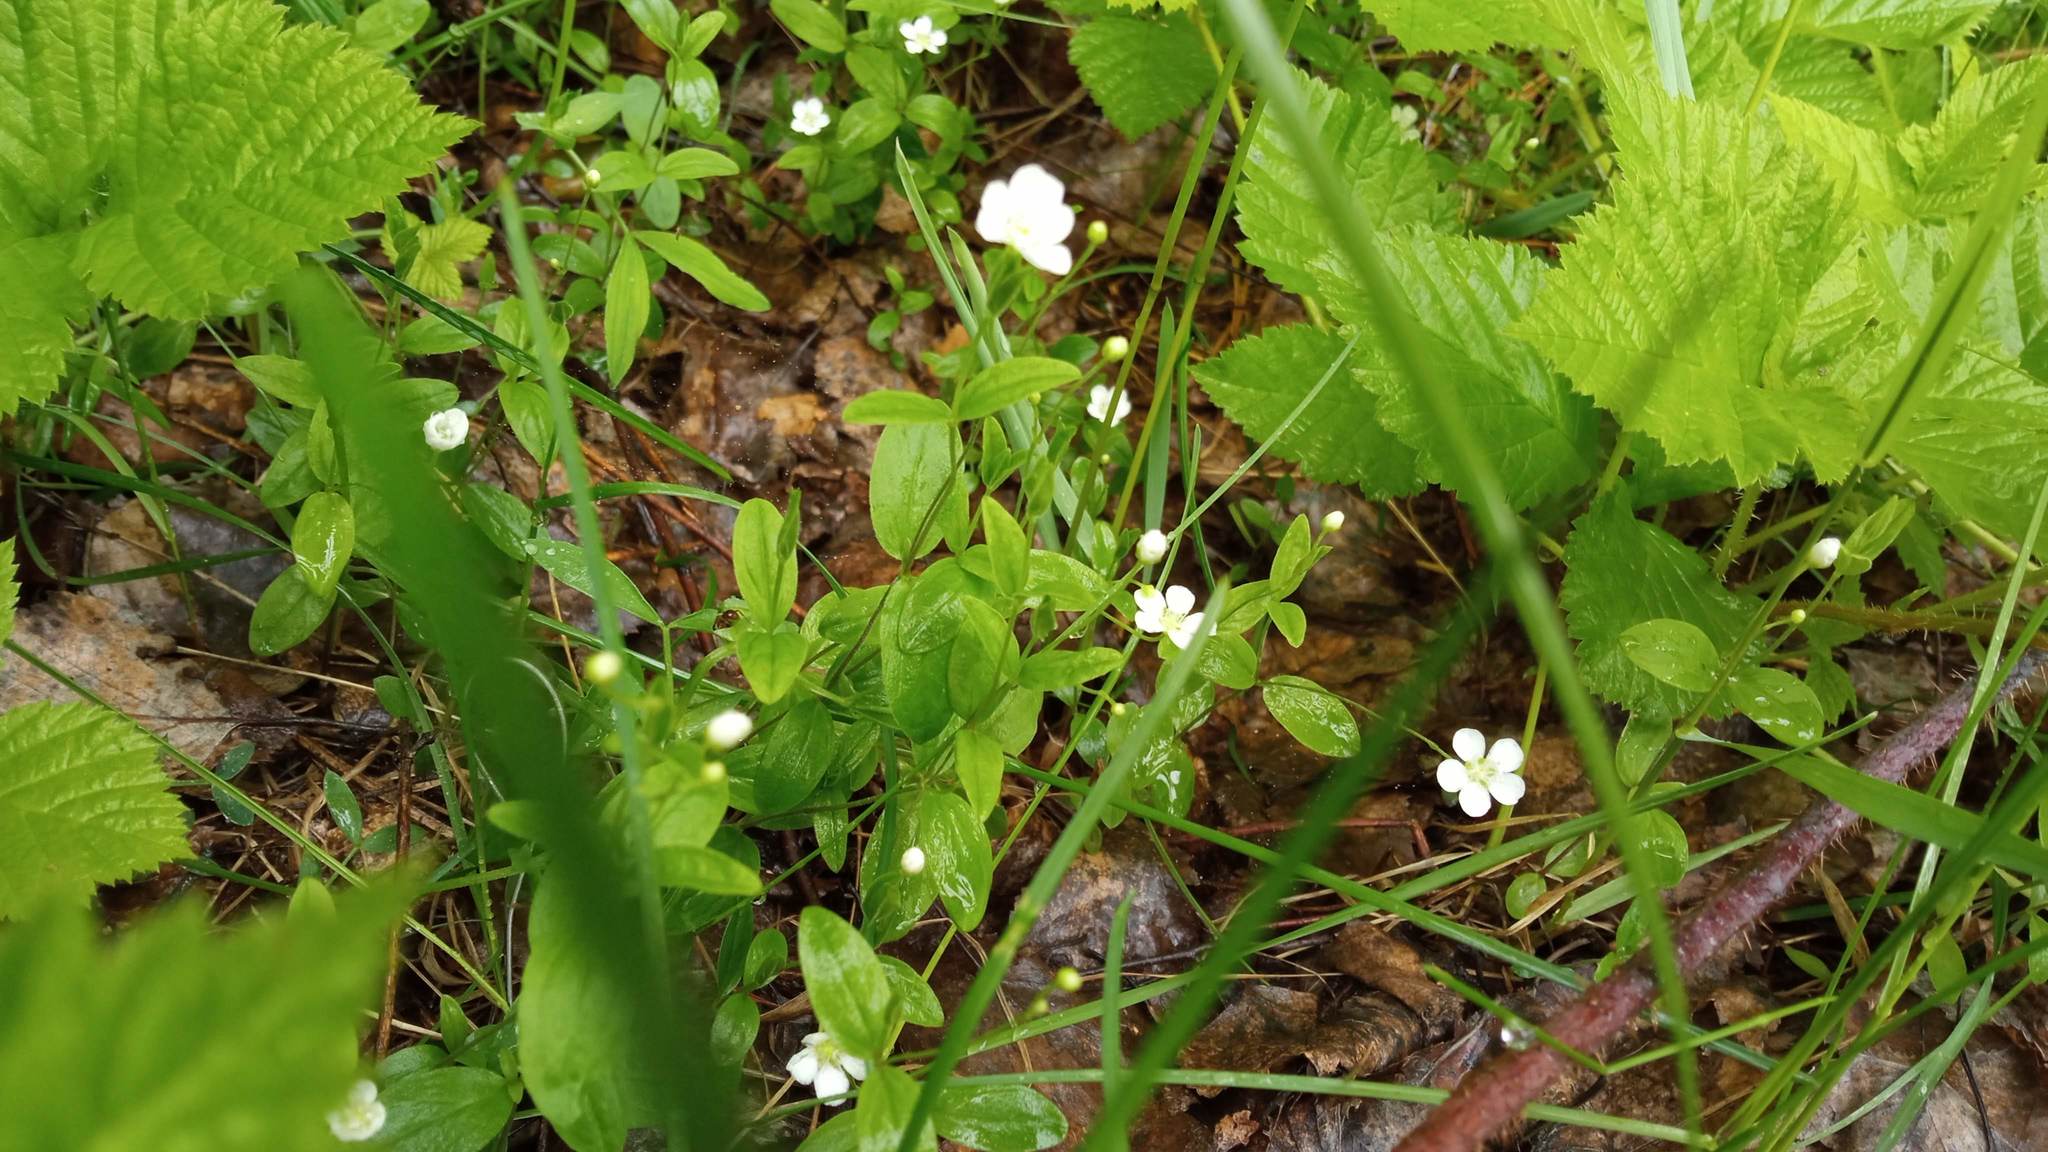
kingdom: Plantae
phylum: Tracheophyta
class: Magnoliopsida
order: Caryophyllales
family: Caryophyllaceae
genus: Moehringia
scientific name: Moehringia lateriflora
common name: Blunt-leaved sandwort
